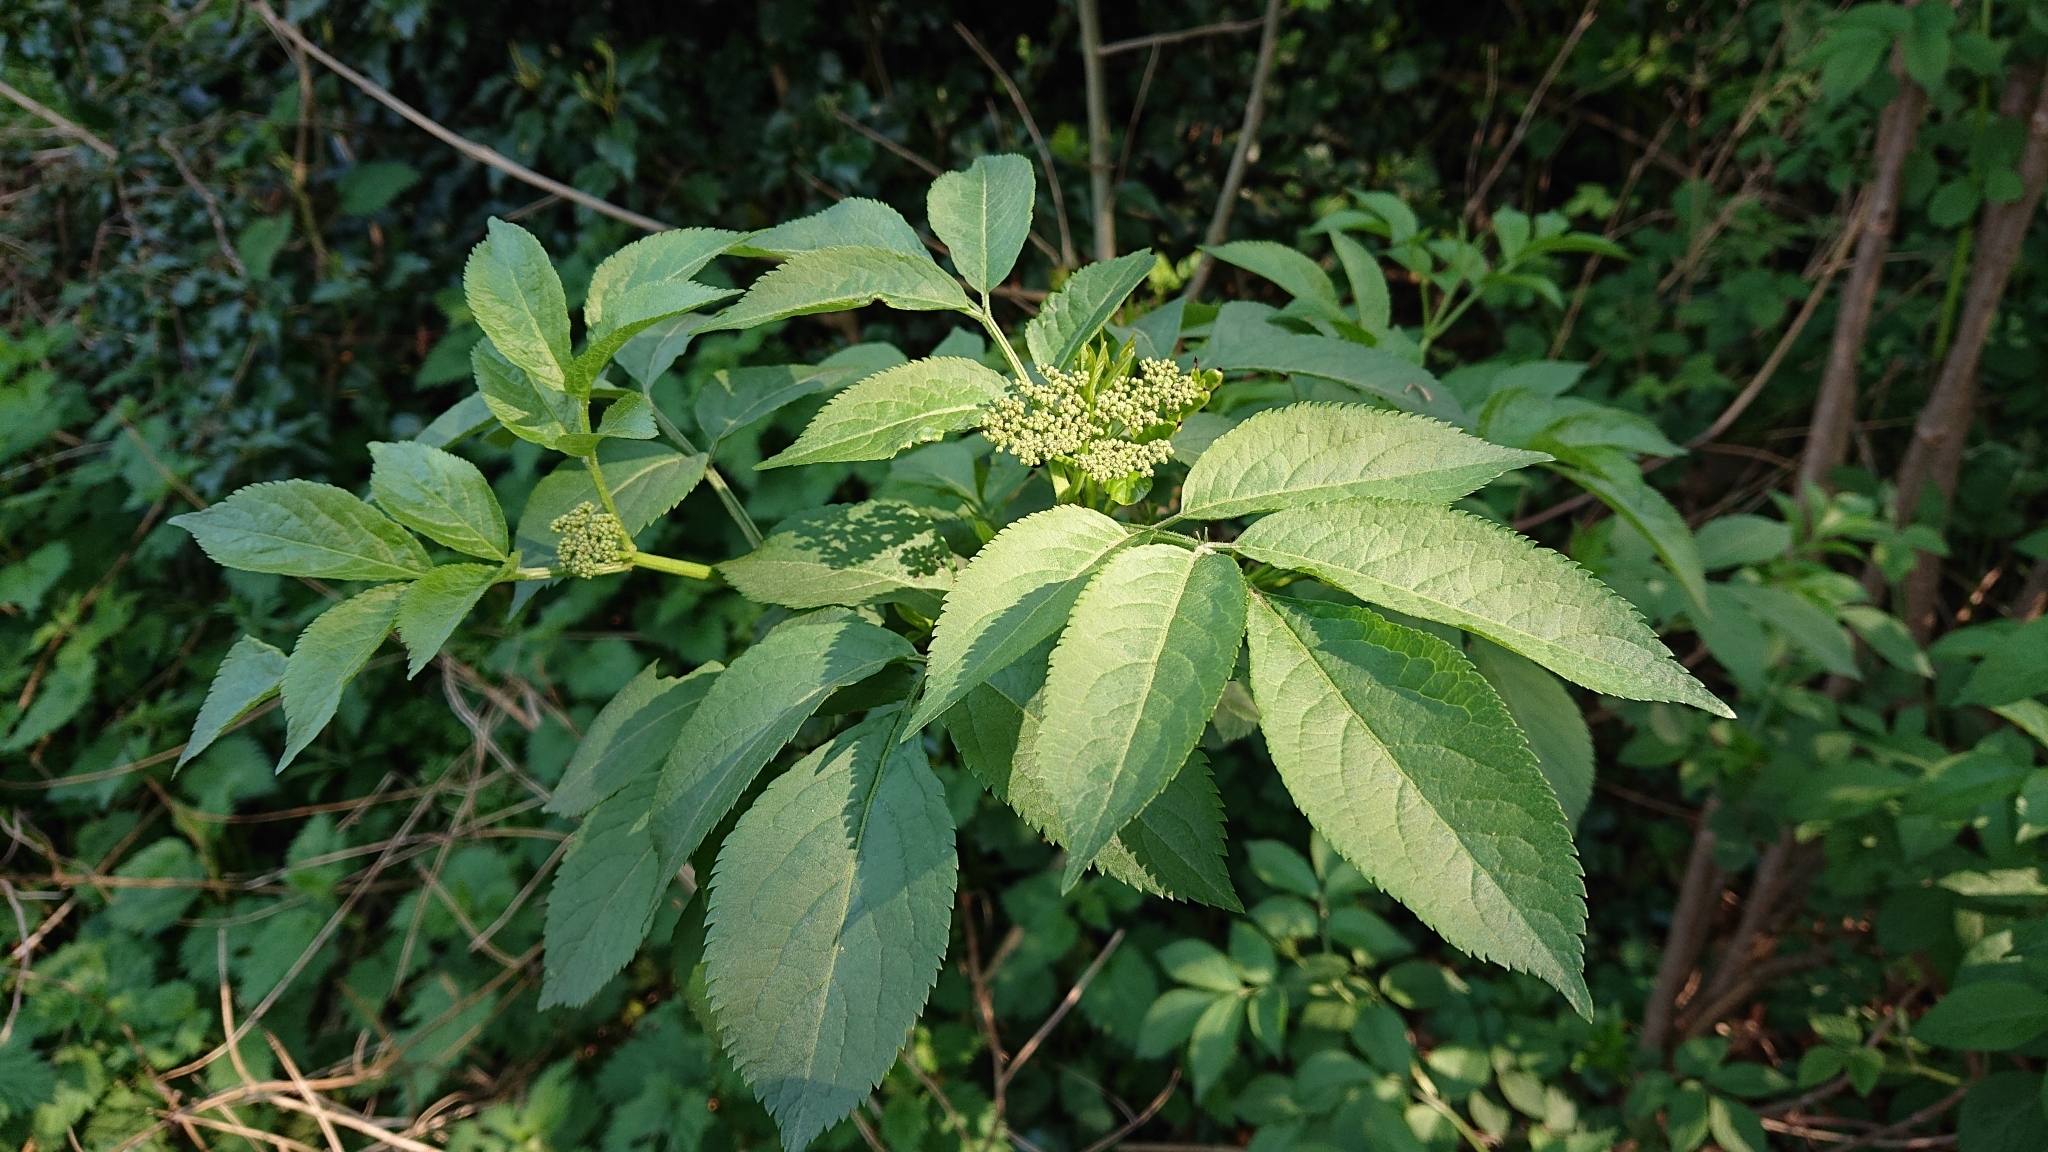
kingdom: Plantae
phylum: Tracheophyta
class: Magnoliopsida
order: Dipsacales
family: Viburnaceae
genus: Sambucus
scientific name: Sambucus nigra
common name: Elder
